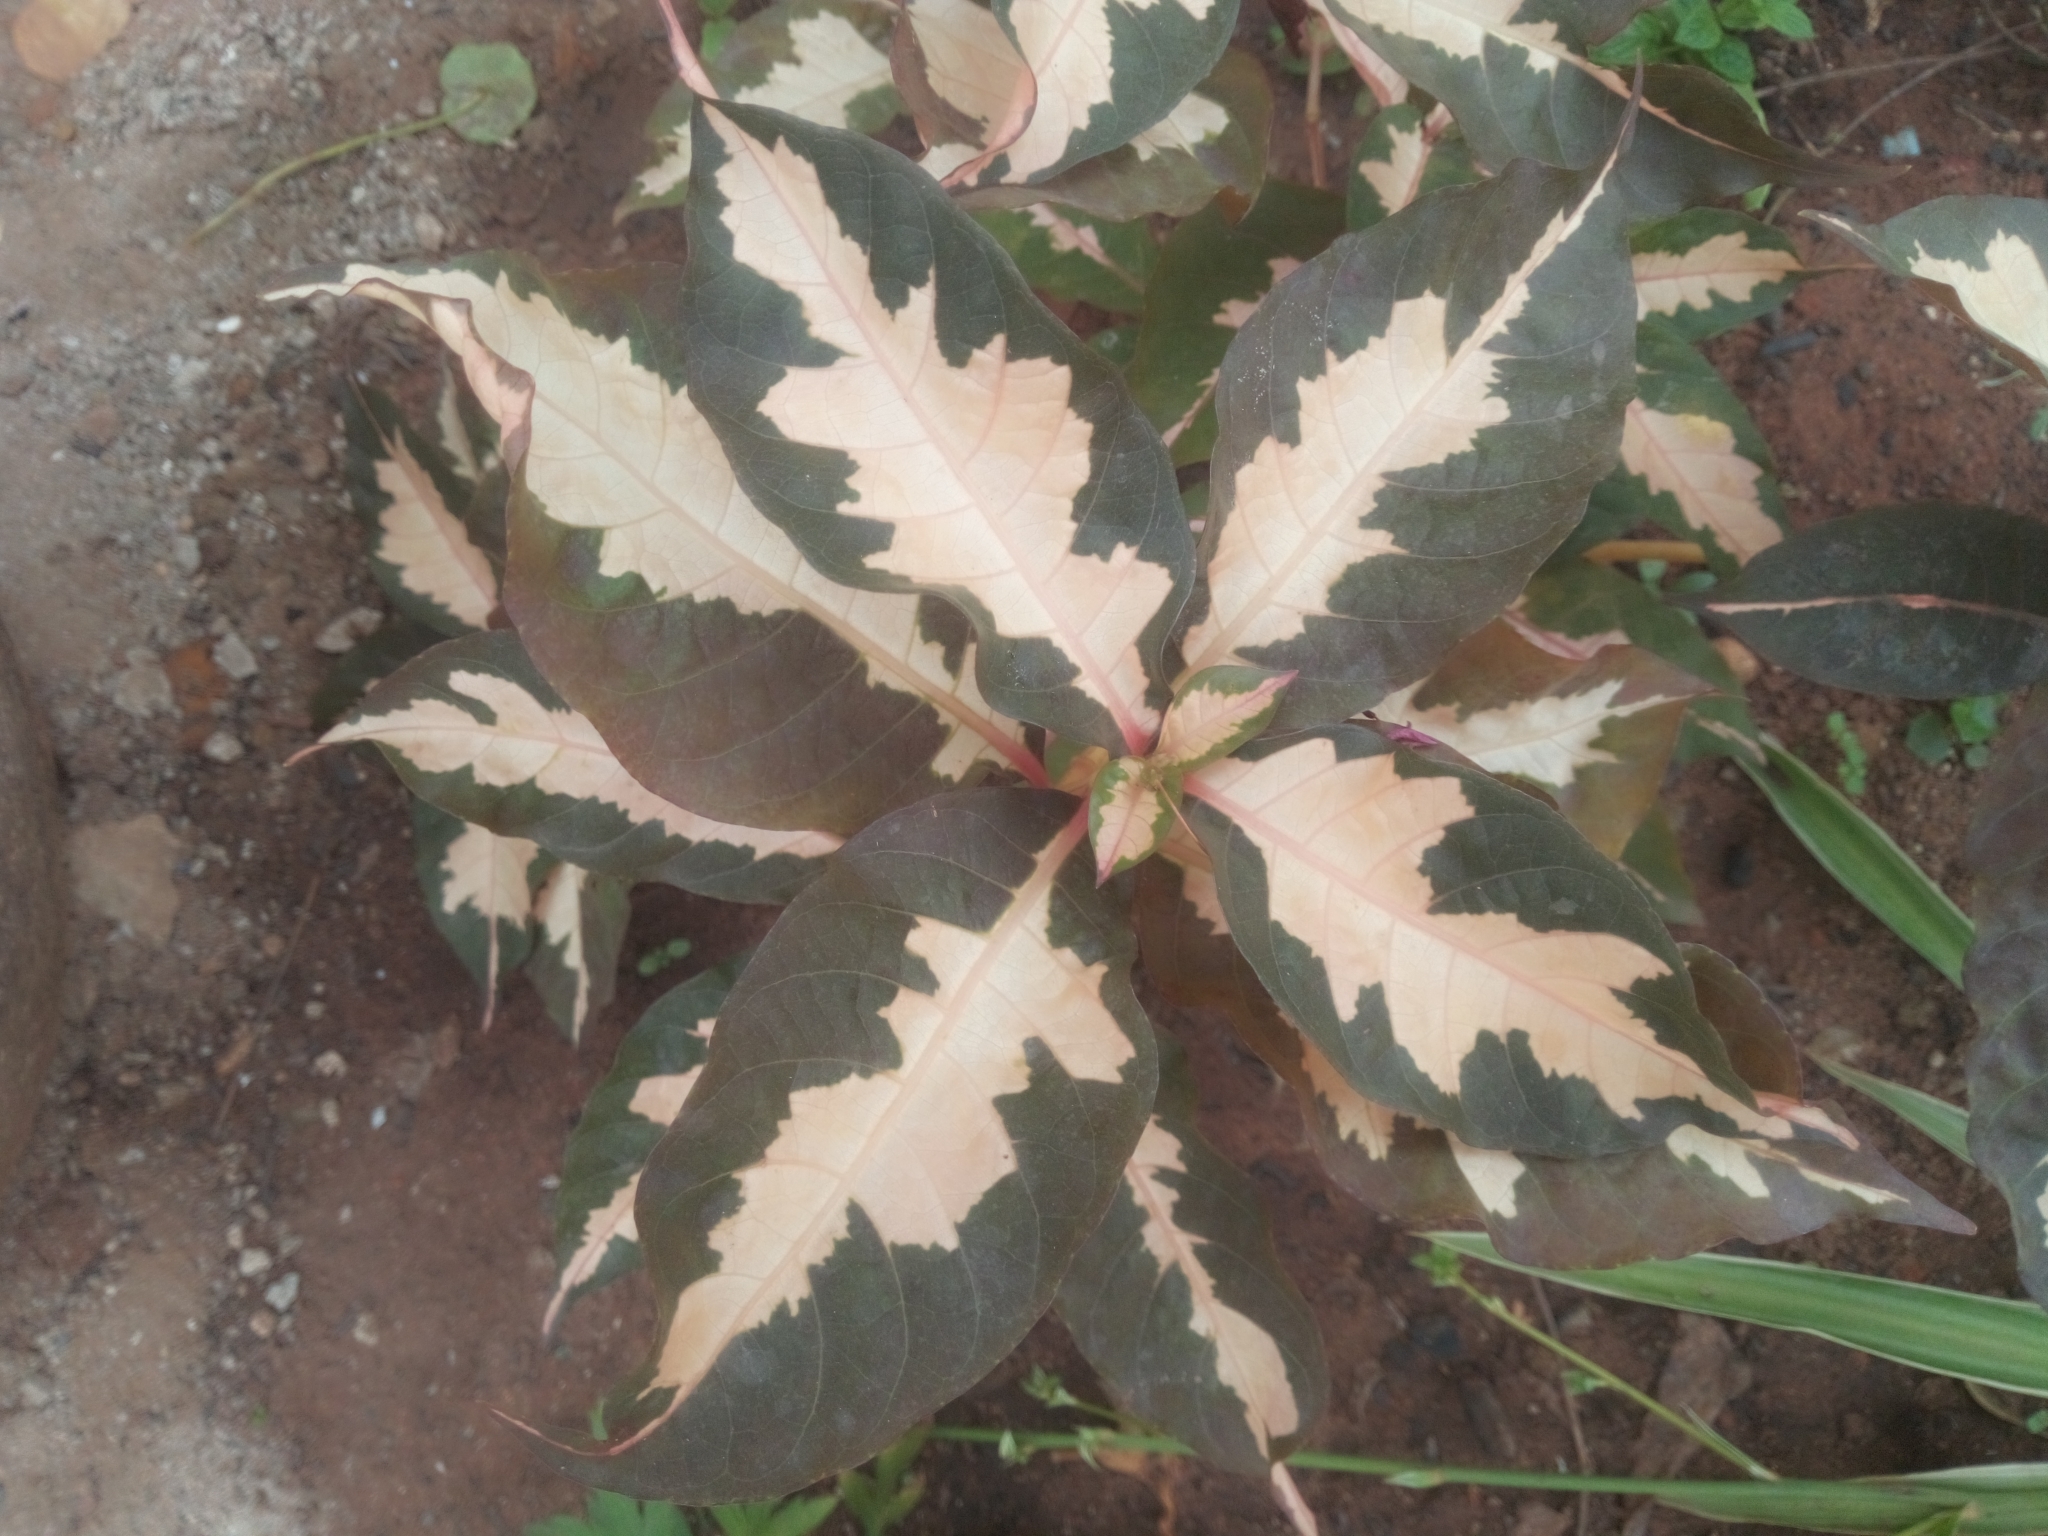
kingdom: Plantae
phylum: Tracheophyta
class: Magnoliopsida
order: Lamiales
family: Acanthaceae
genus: Graptophyllum
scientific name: Graptophyllum pictum
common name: Caricature-plant
